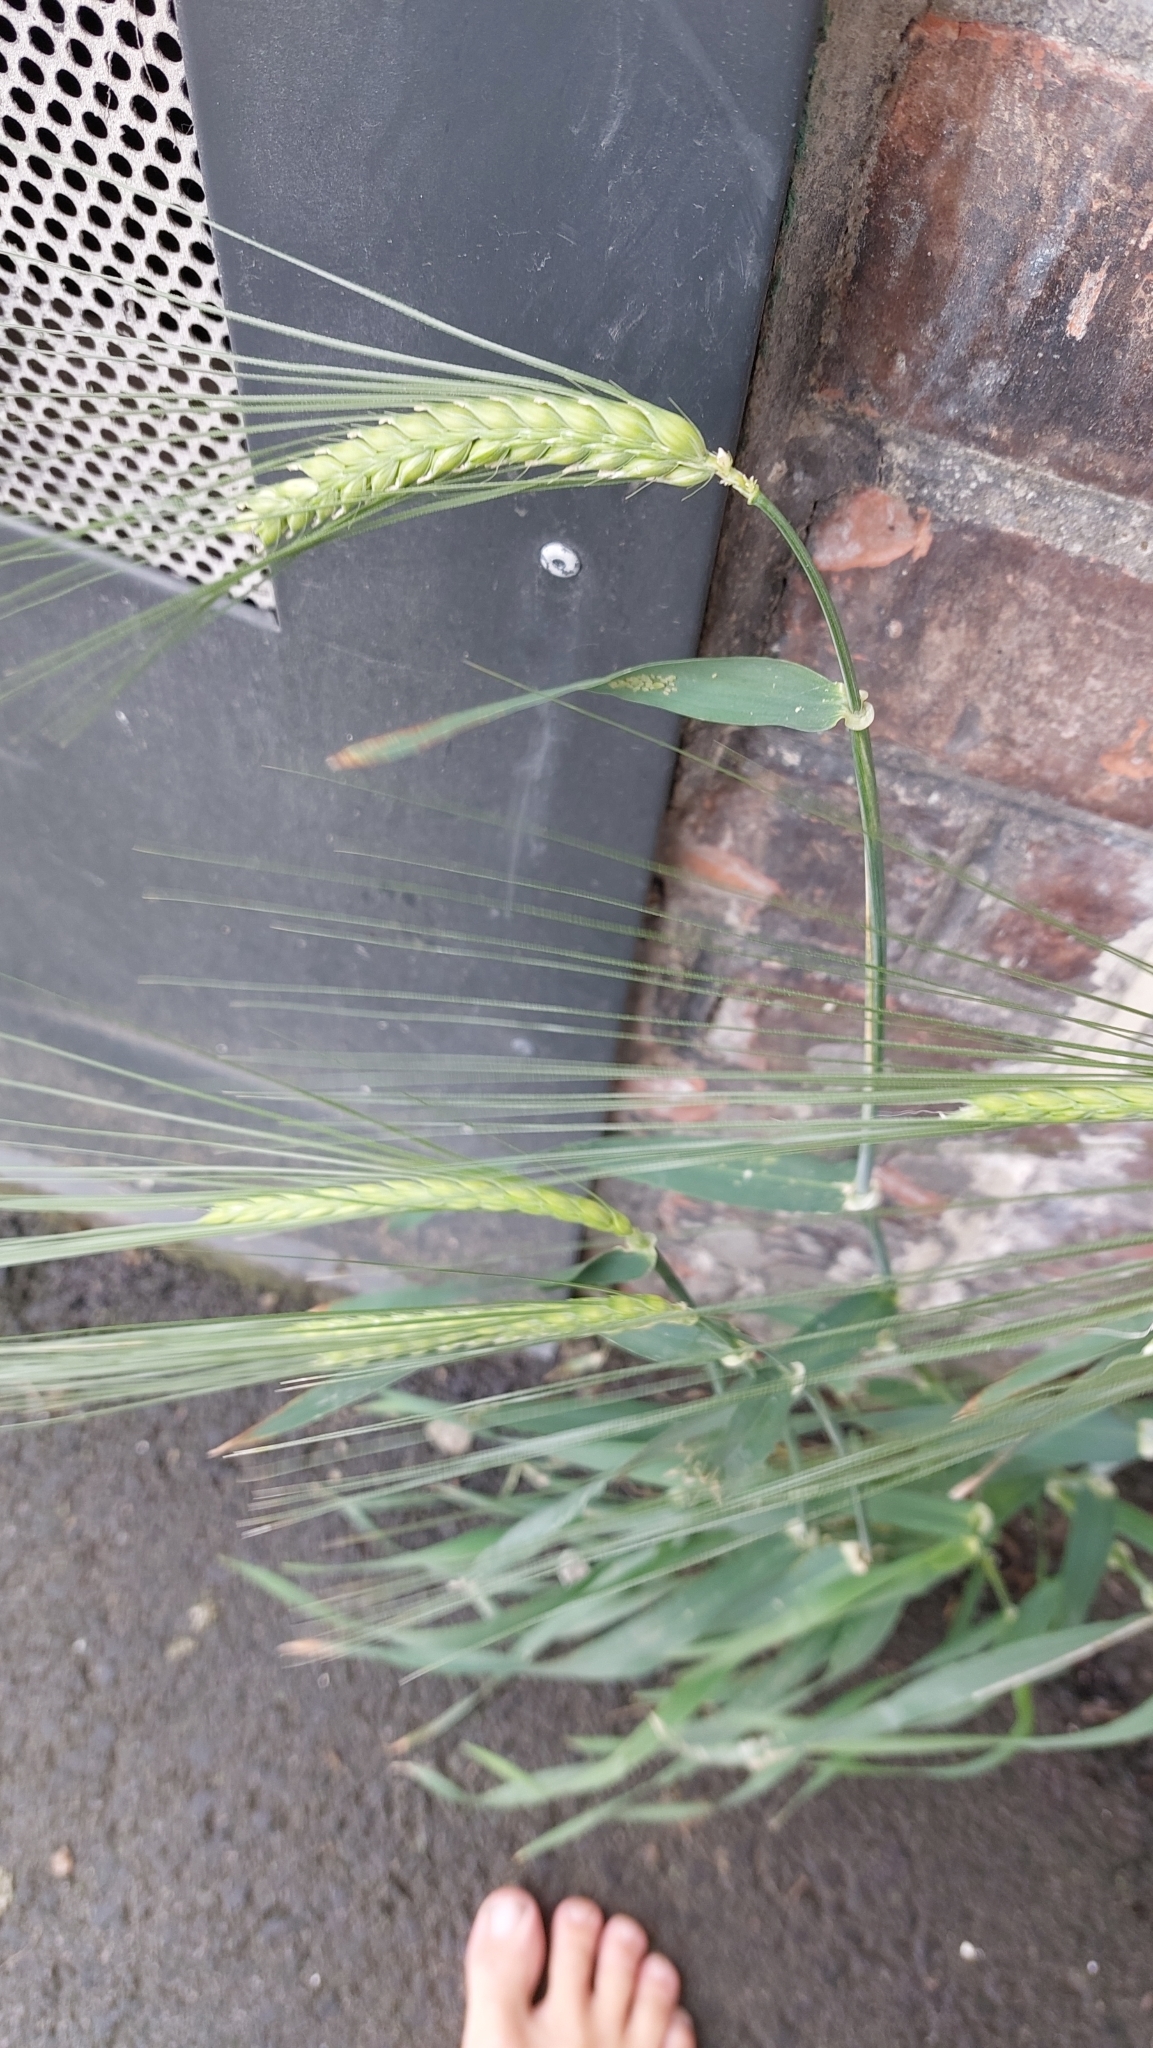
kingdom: Plantae
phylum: Tracheophyta
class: Liliopsida
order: Poales
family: Poaceae
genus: Triticum
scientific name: Triticum aestivum
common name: Common wheat
